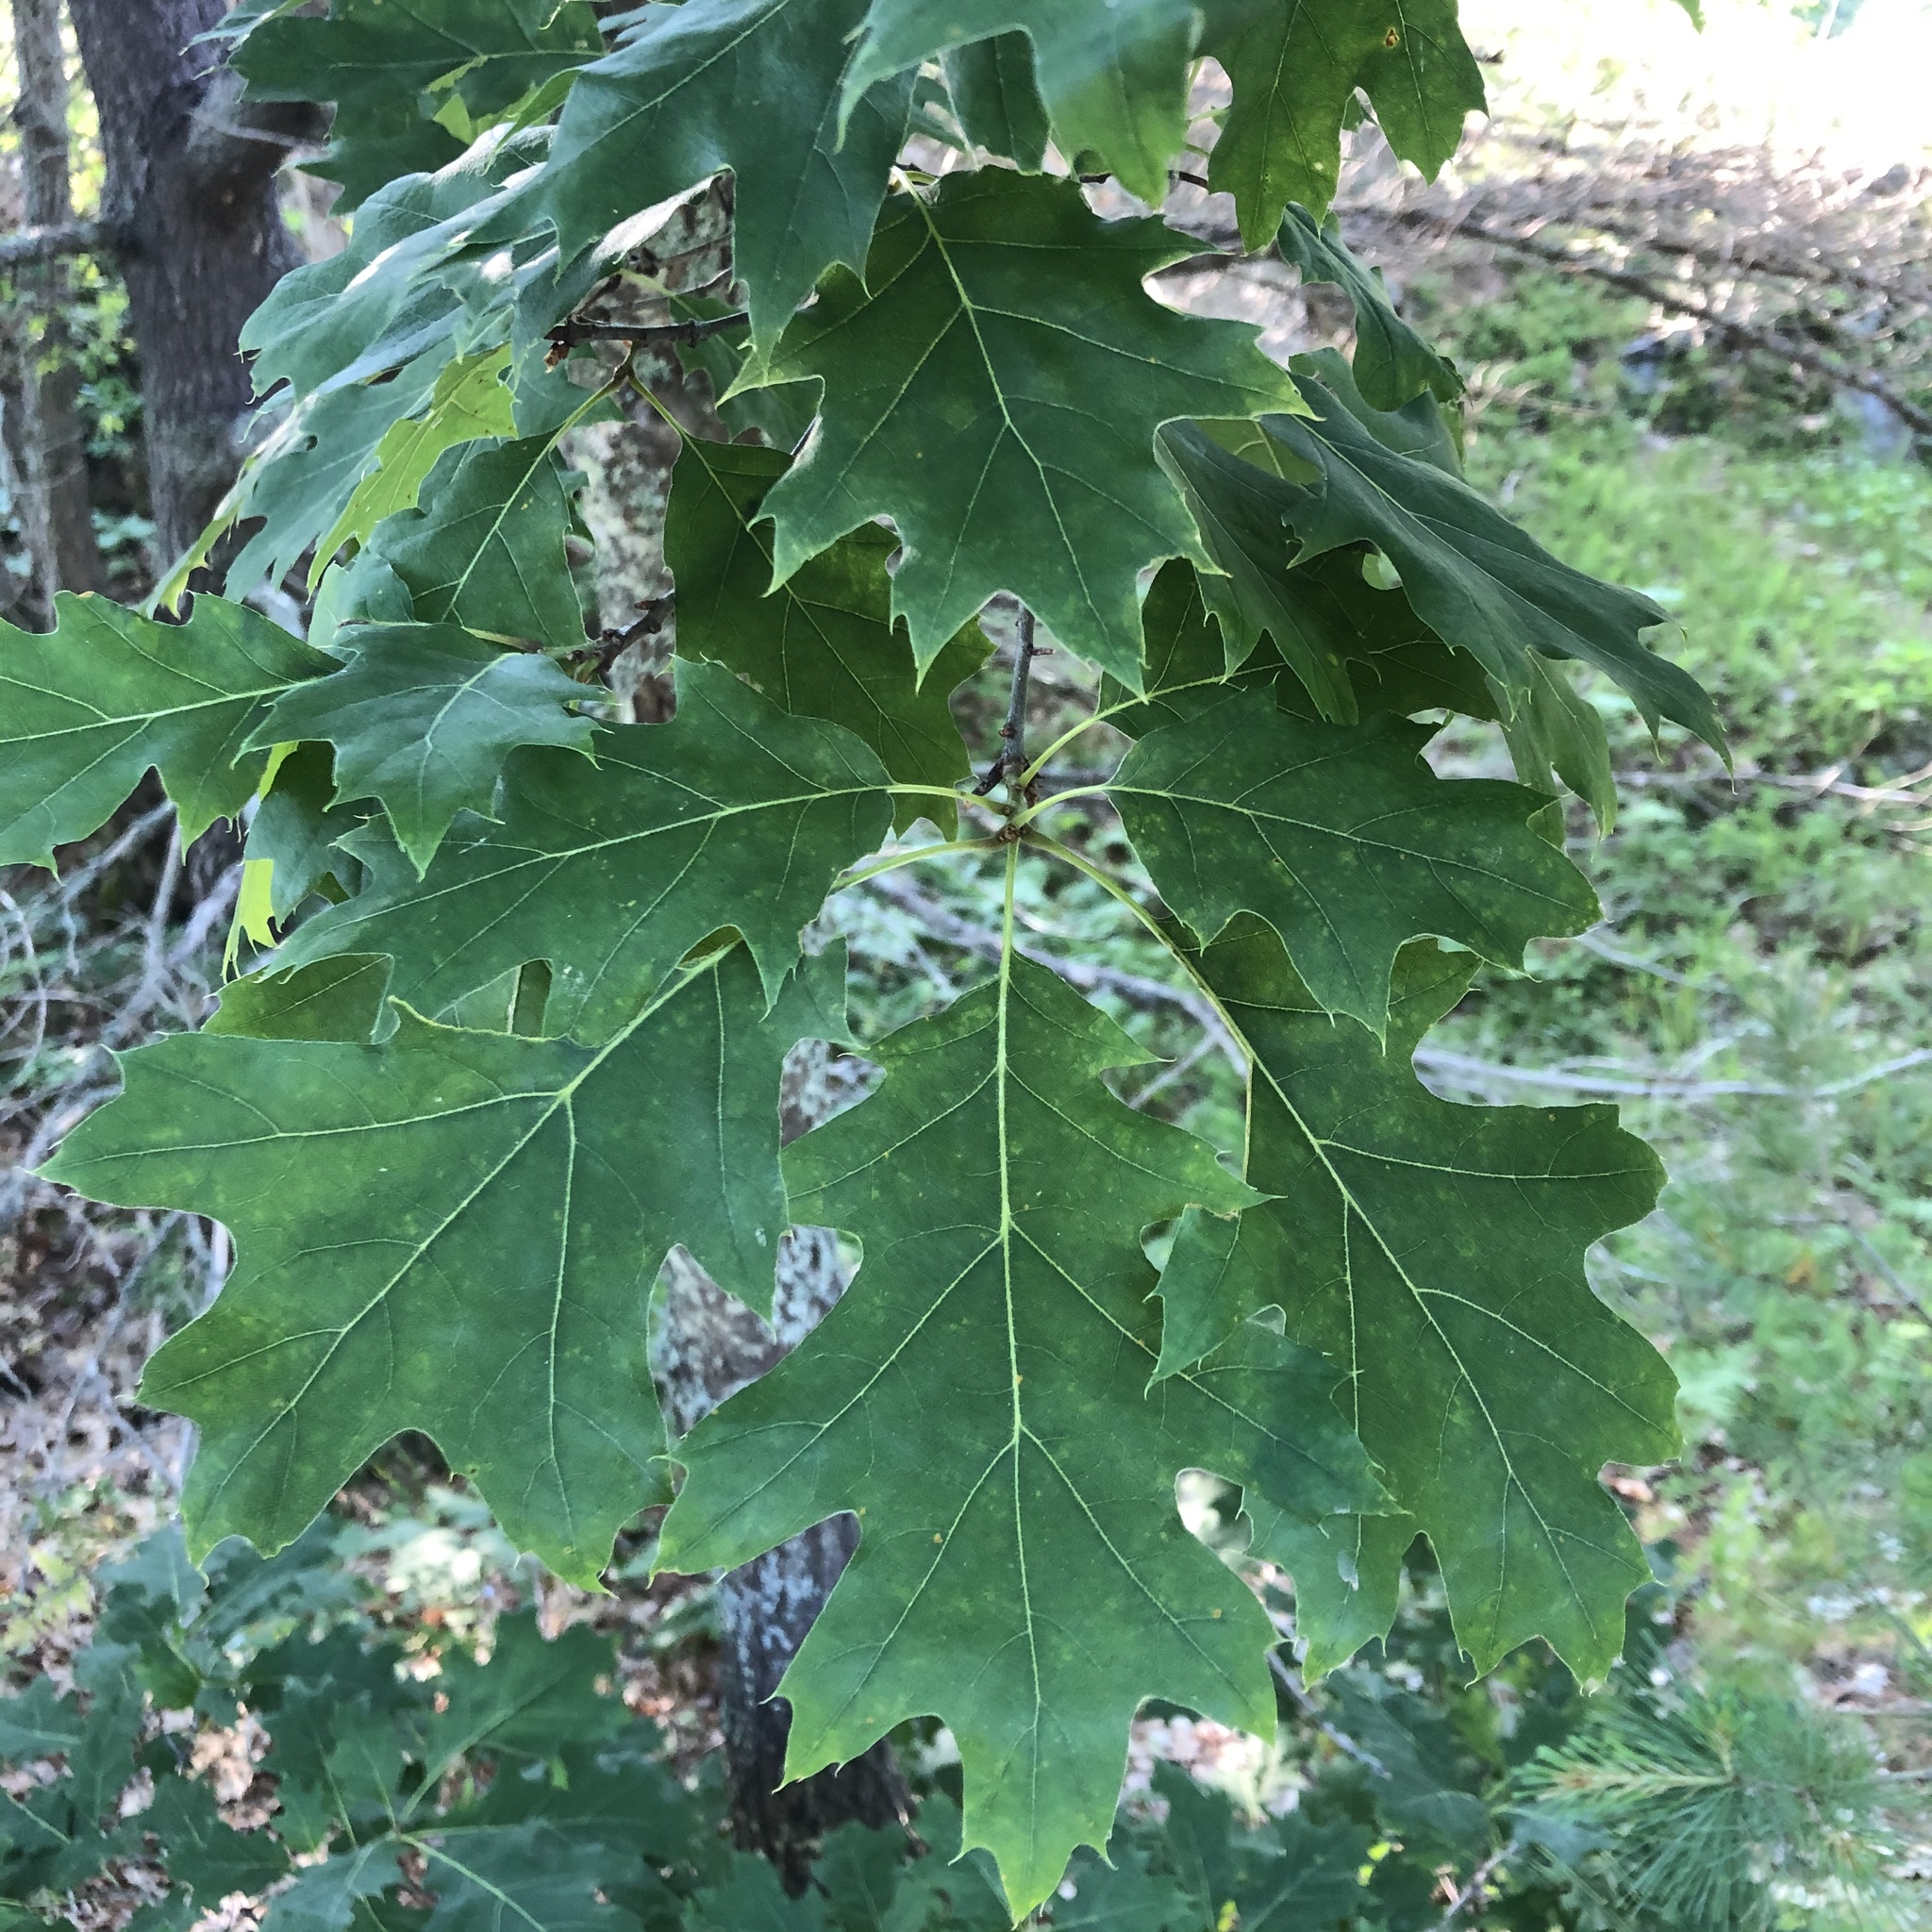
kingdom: Plantae
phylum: Tracheophyta
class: Magnoliopsida
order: Fagales
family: Fagaceae
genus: Quercus
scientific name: Quercus rubra
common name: Red oak
